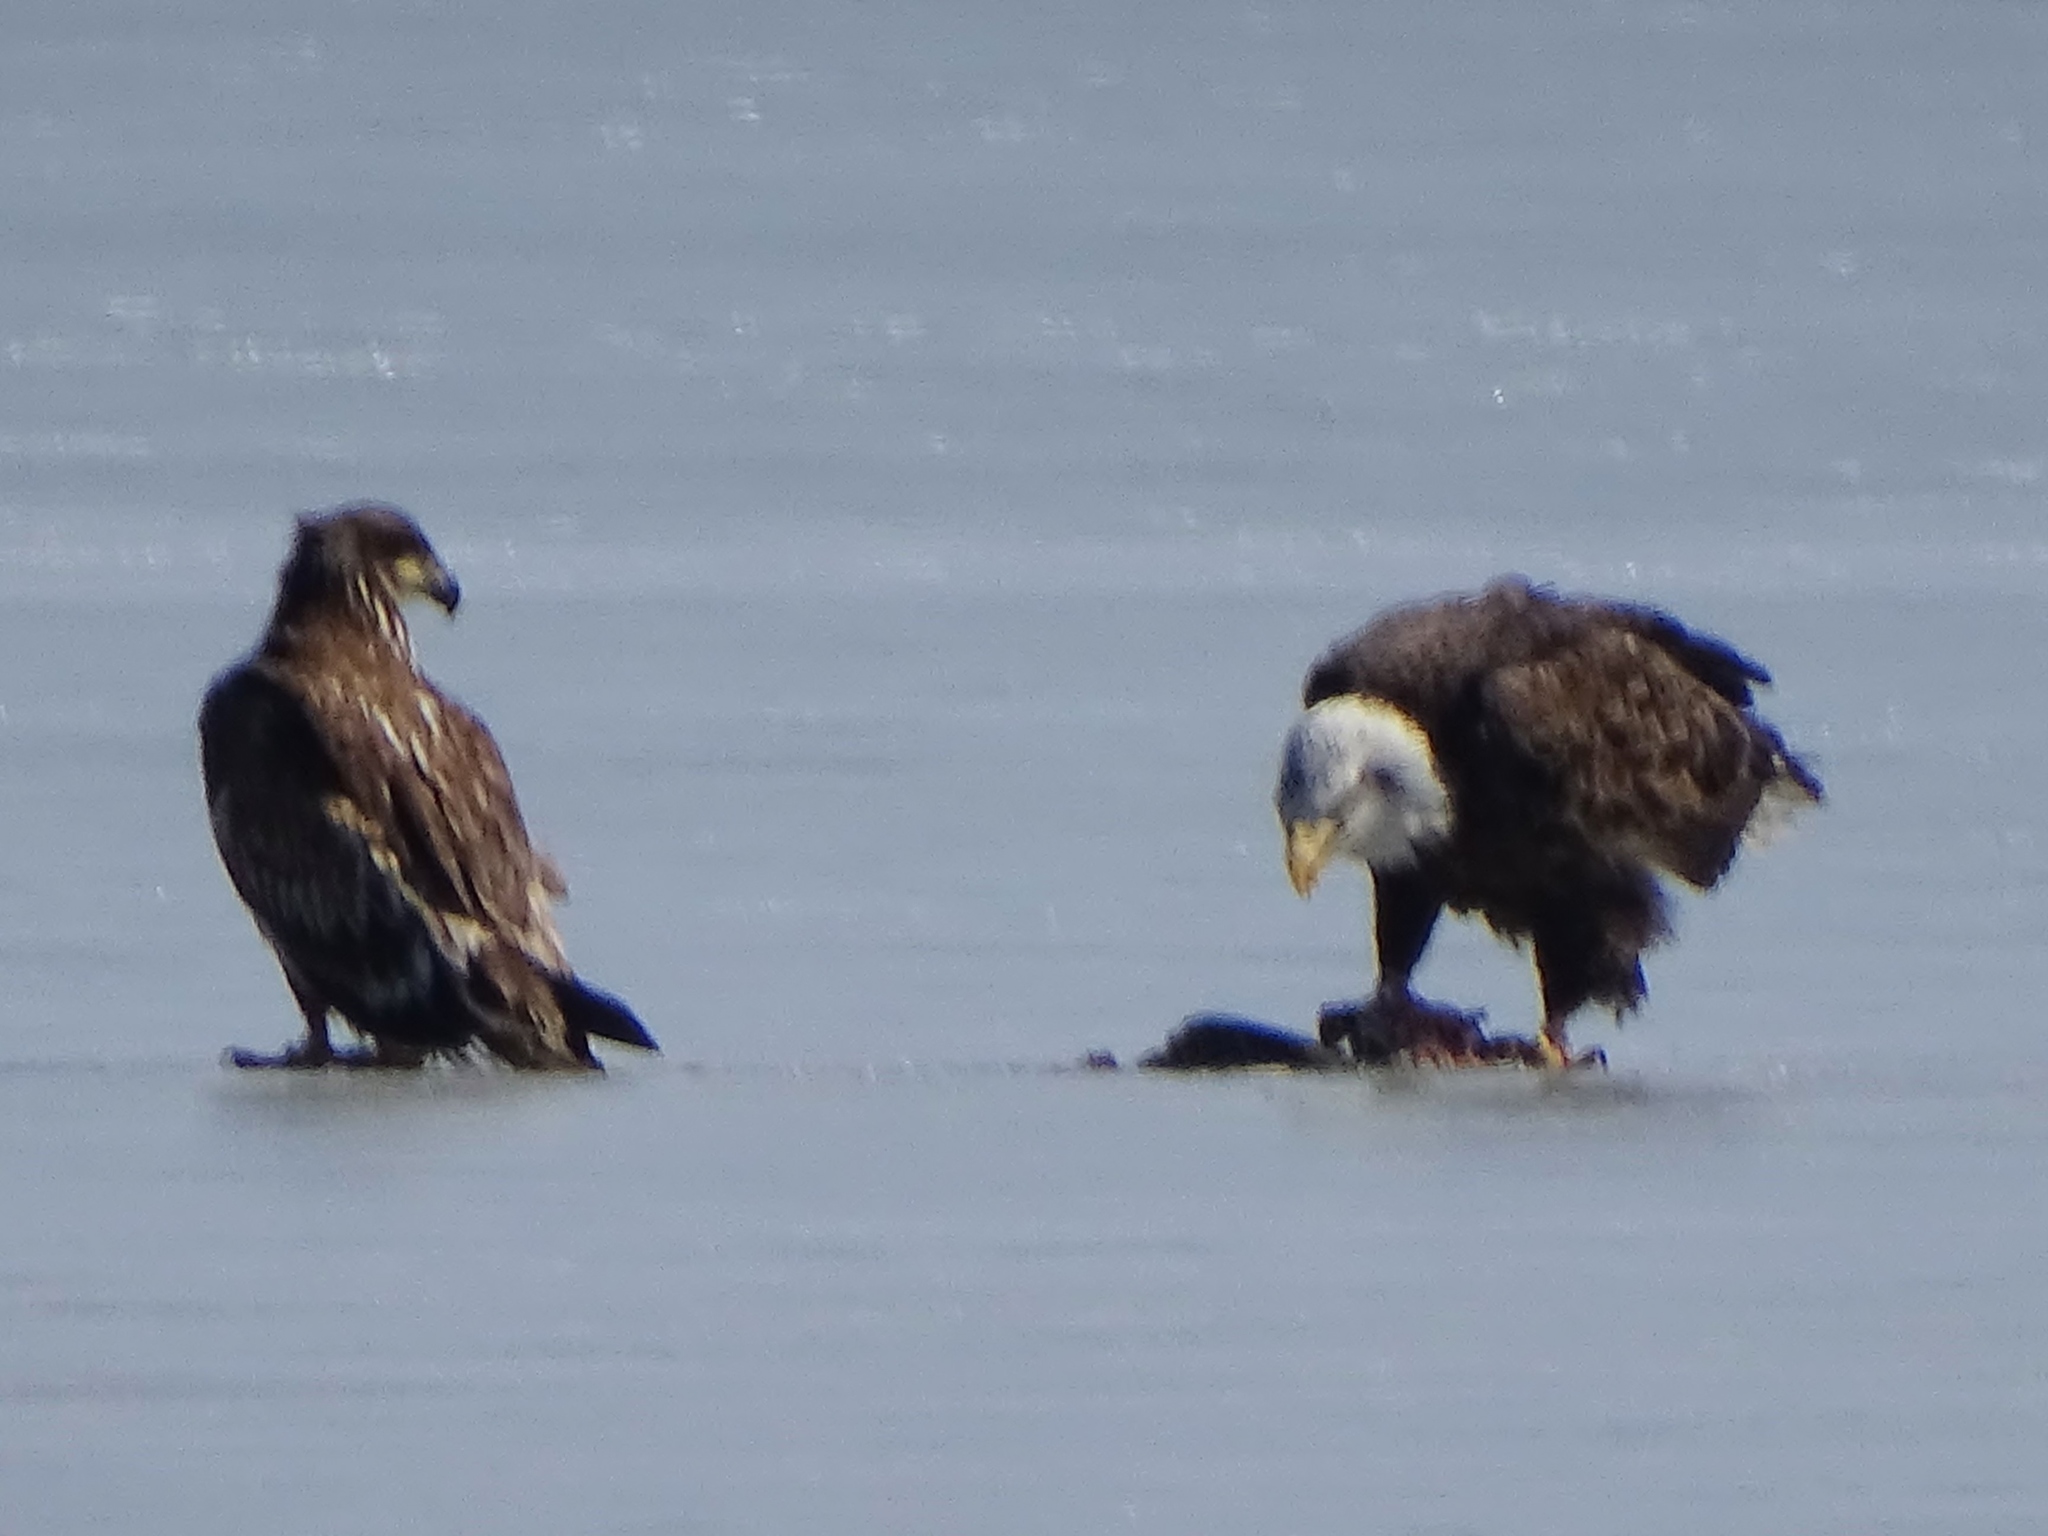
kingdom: Animalia
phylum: Chordata
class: Aves
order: Accipitriformes
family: Accipitridae
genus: Haliaeetus
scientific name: Haliaeetus leucocephalus
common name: Bald eagle
